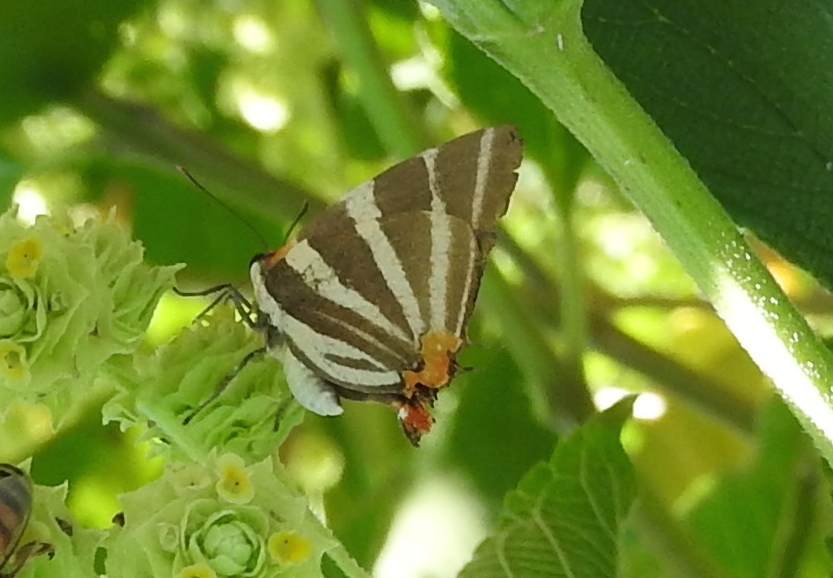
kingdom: Animalia
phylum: Arthropoda
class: Insecta
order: Lepidoptera
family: Lycaenidae
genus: Thecla
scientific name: Thecla bathildis
